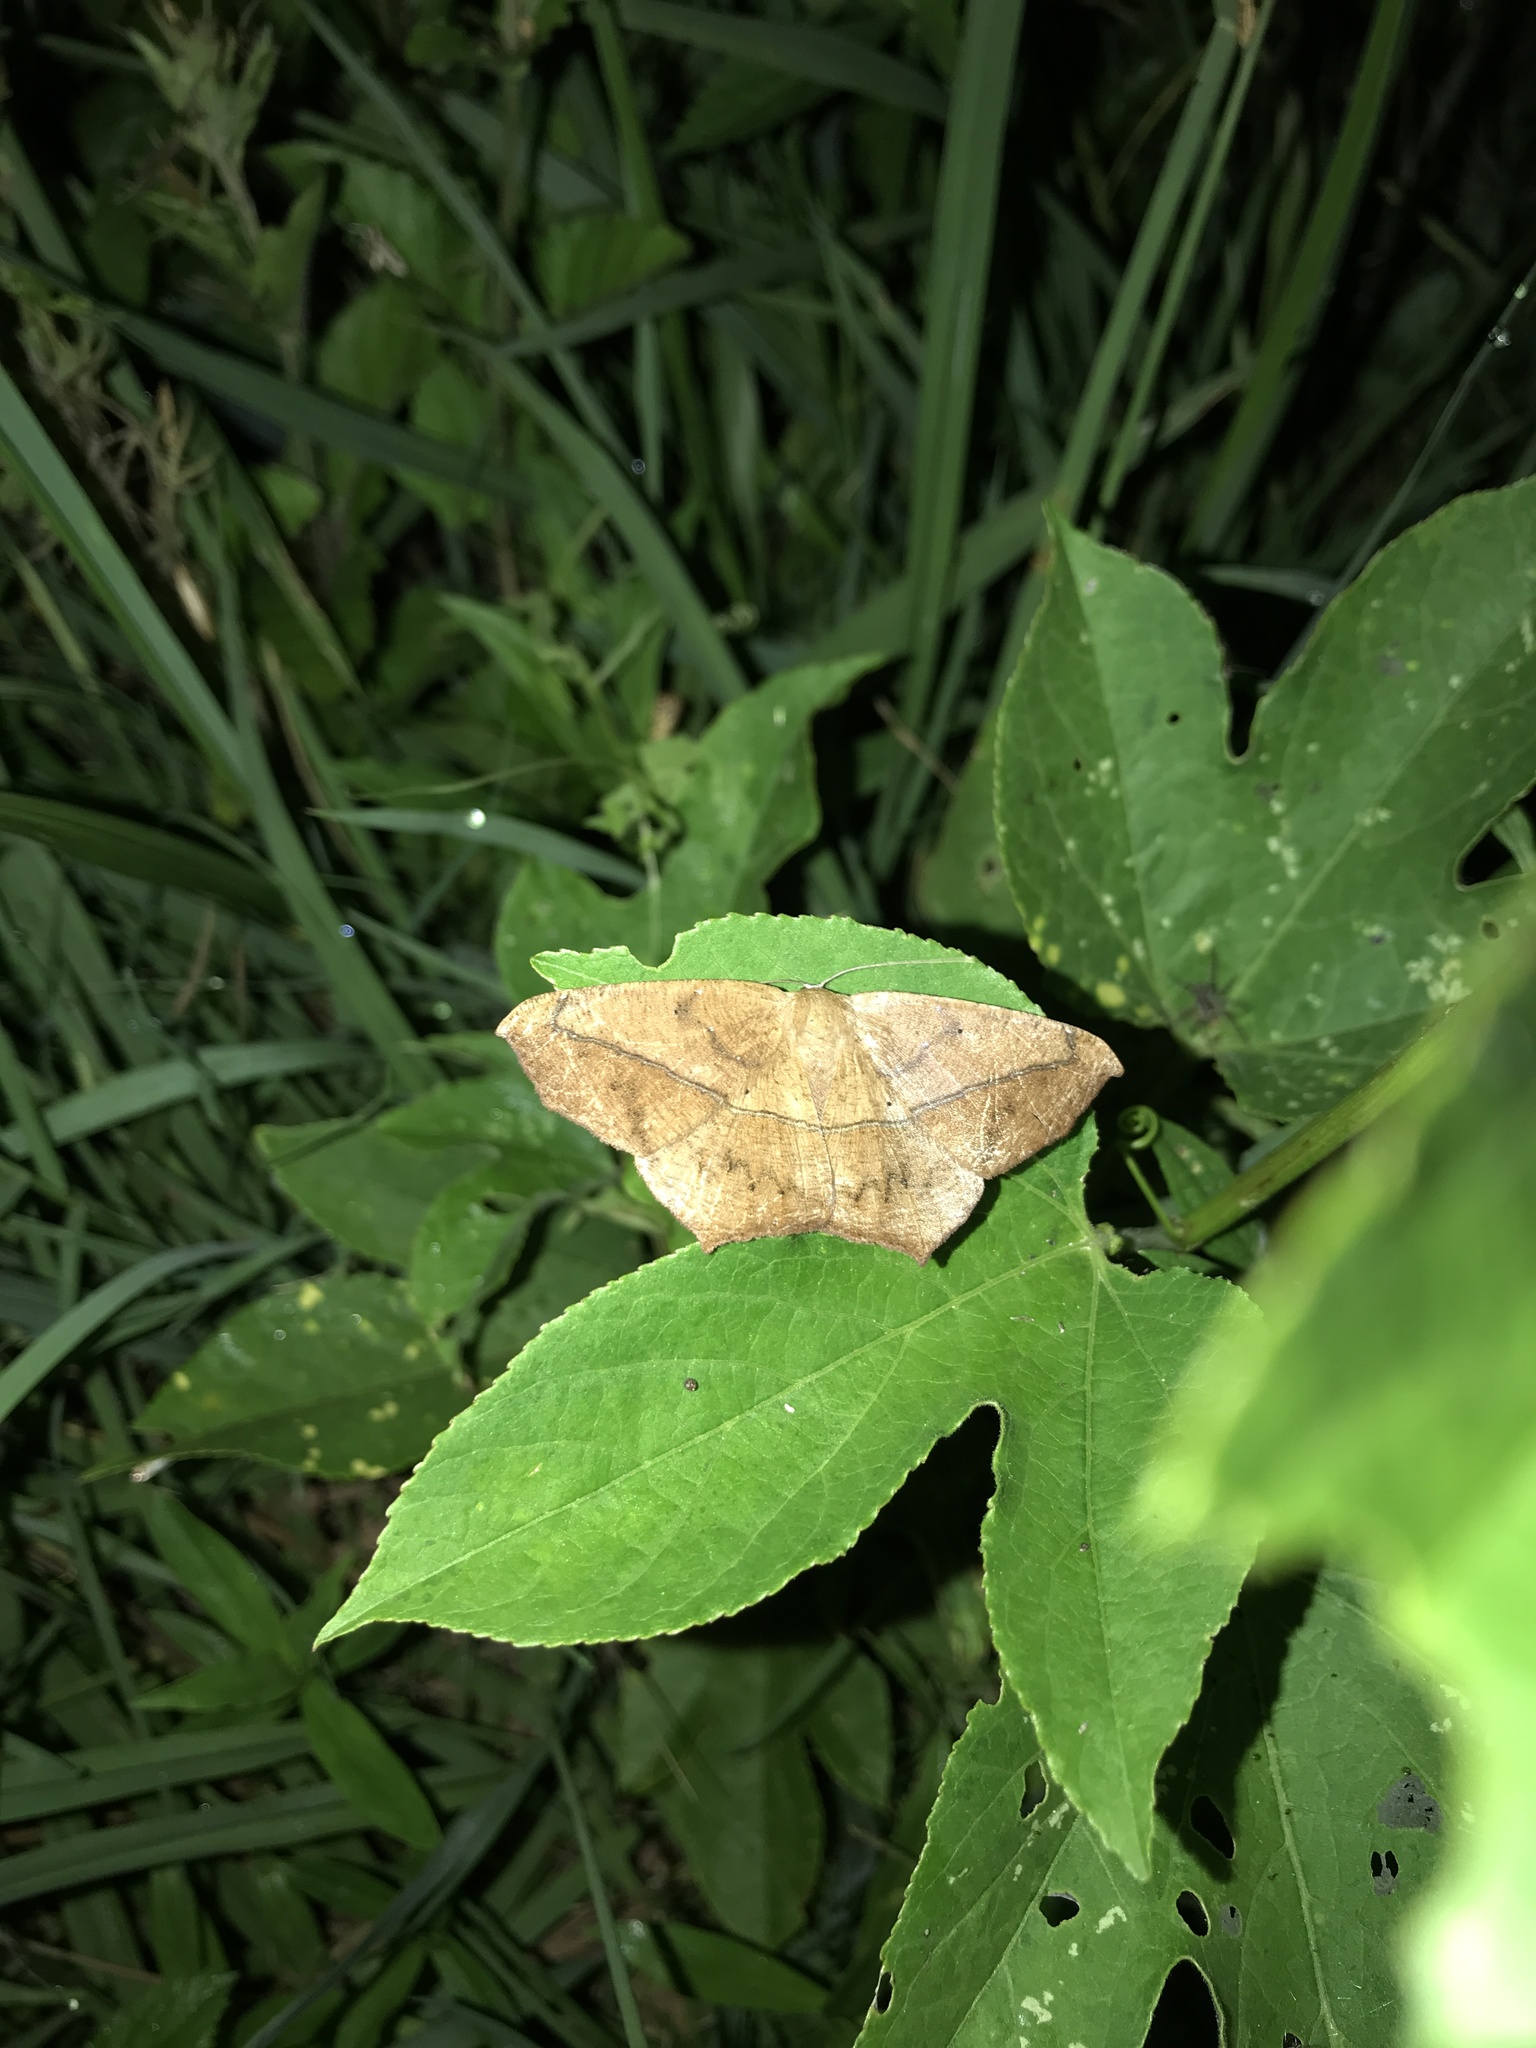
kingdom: Animalia
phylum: Arthropoda
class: Insecta
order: Lepidoptera
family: Geometridae
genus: Prochoerodes
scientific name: Prochoerodes lineola
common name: Large maple spanworm
